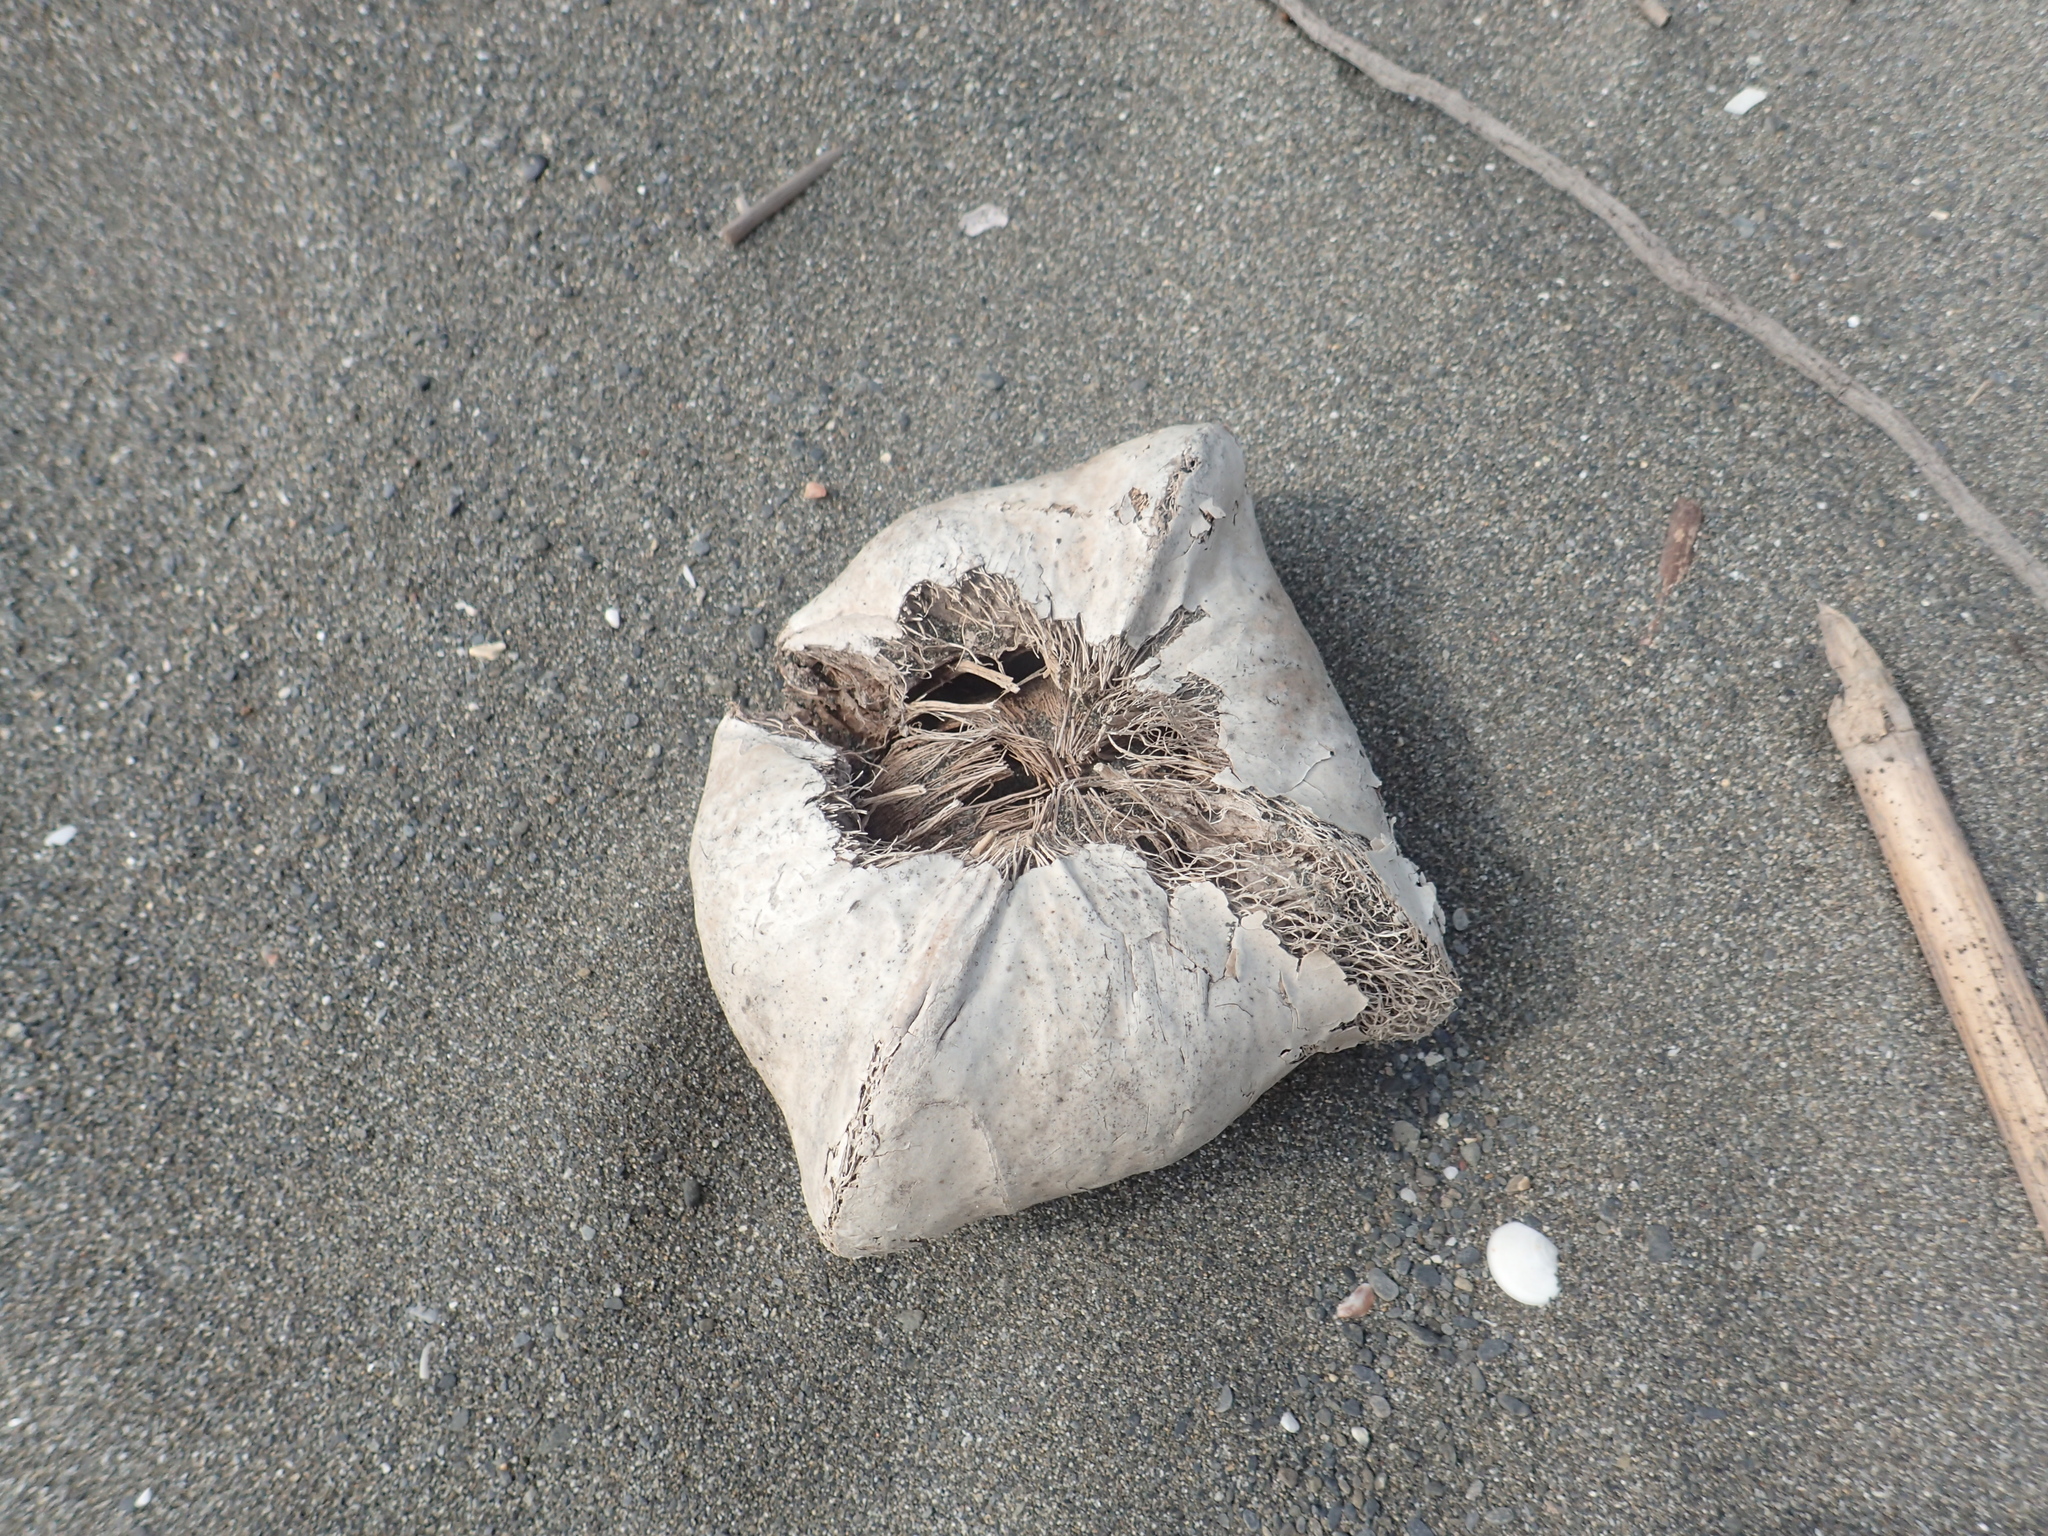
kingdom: Plantae
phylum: Tracheophyta
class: Magnoliopsida
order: Ericales
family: Lecythidaceae
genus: Barringtonia
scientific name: Barringtonia asiatica
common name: Mango-pine
